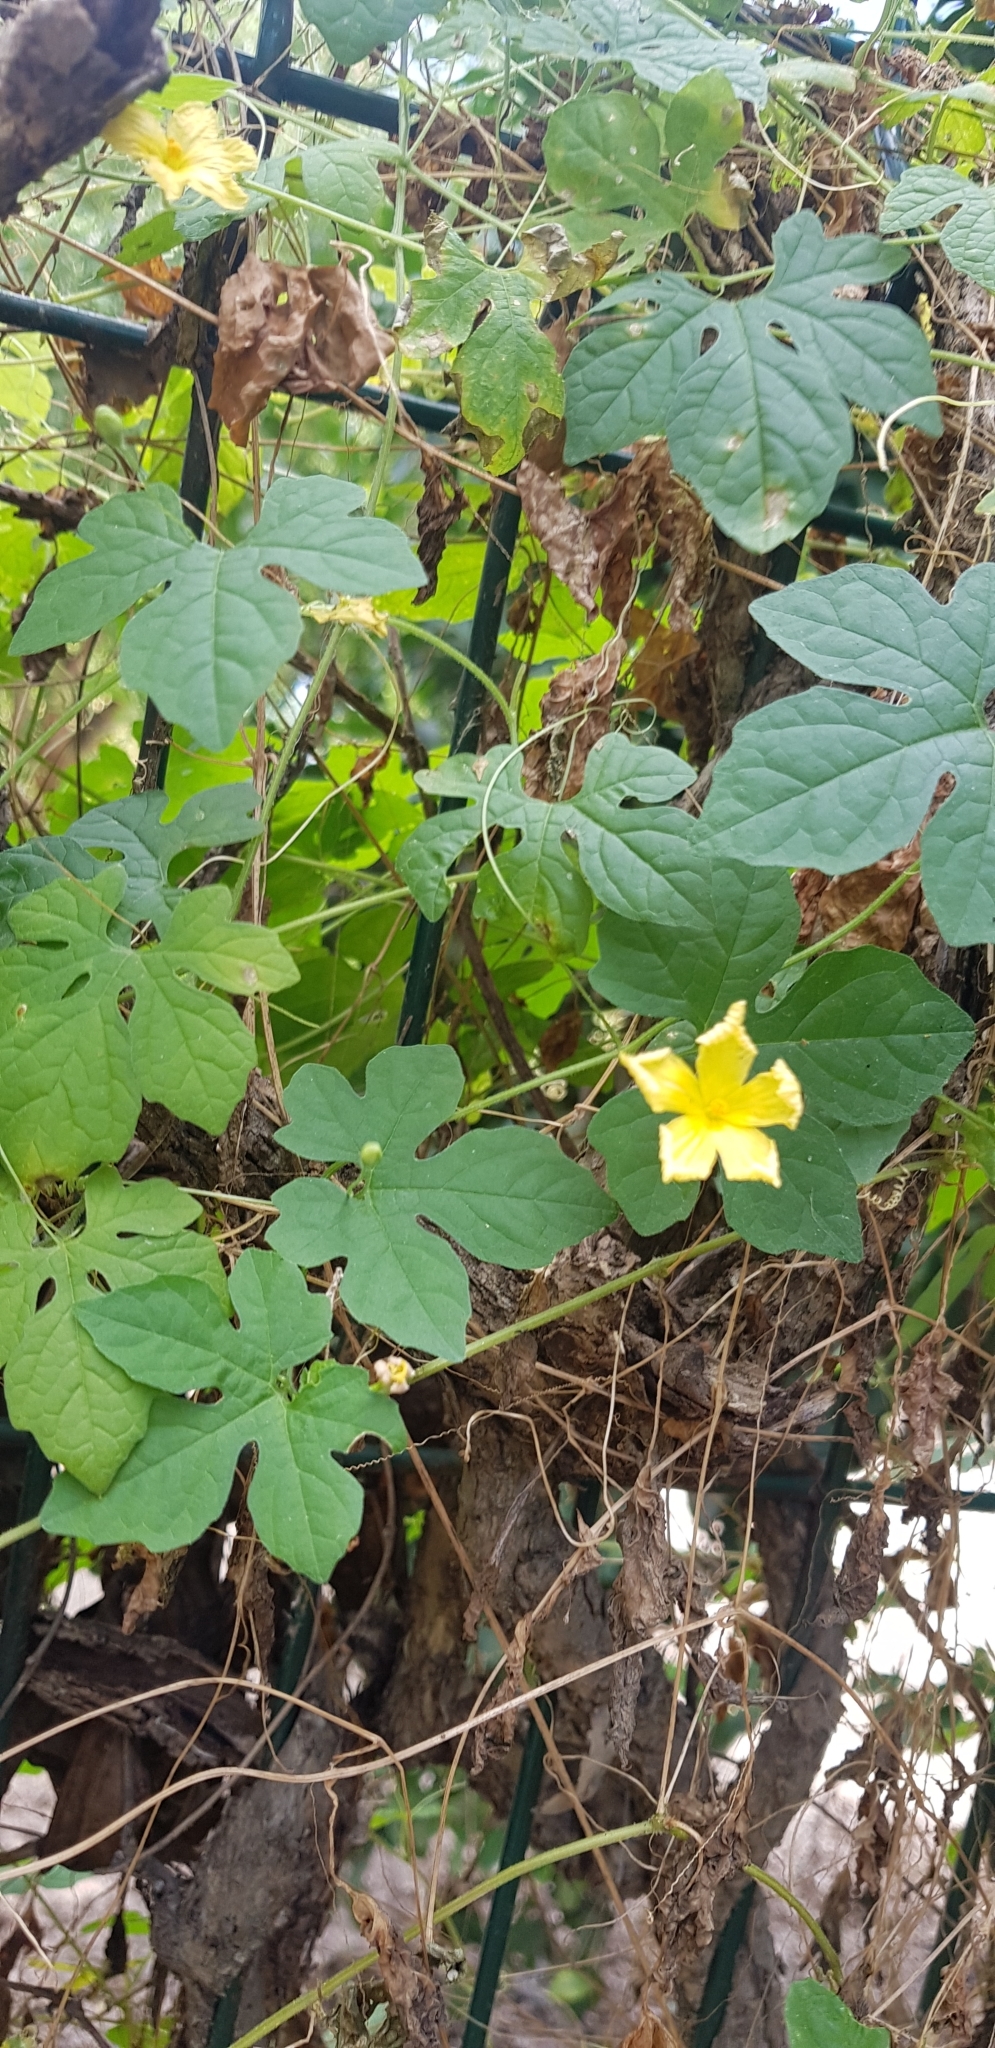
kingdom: Plantae
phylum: Tracheophyta
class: Magnoliopsida
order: Cucurbitales
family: Cucurbitaceae
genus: Momordica
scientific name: Momordica charantia
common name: Balsampear
